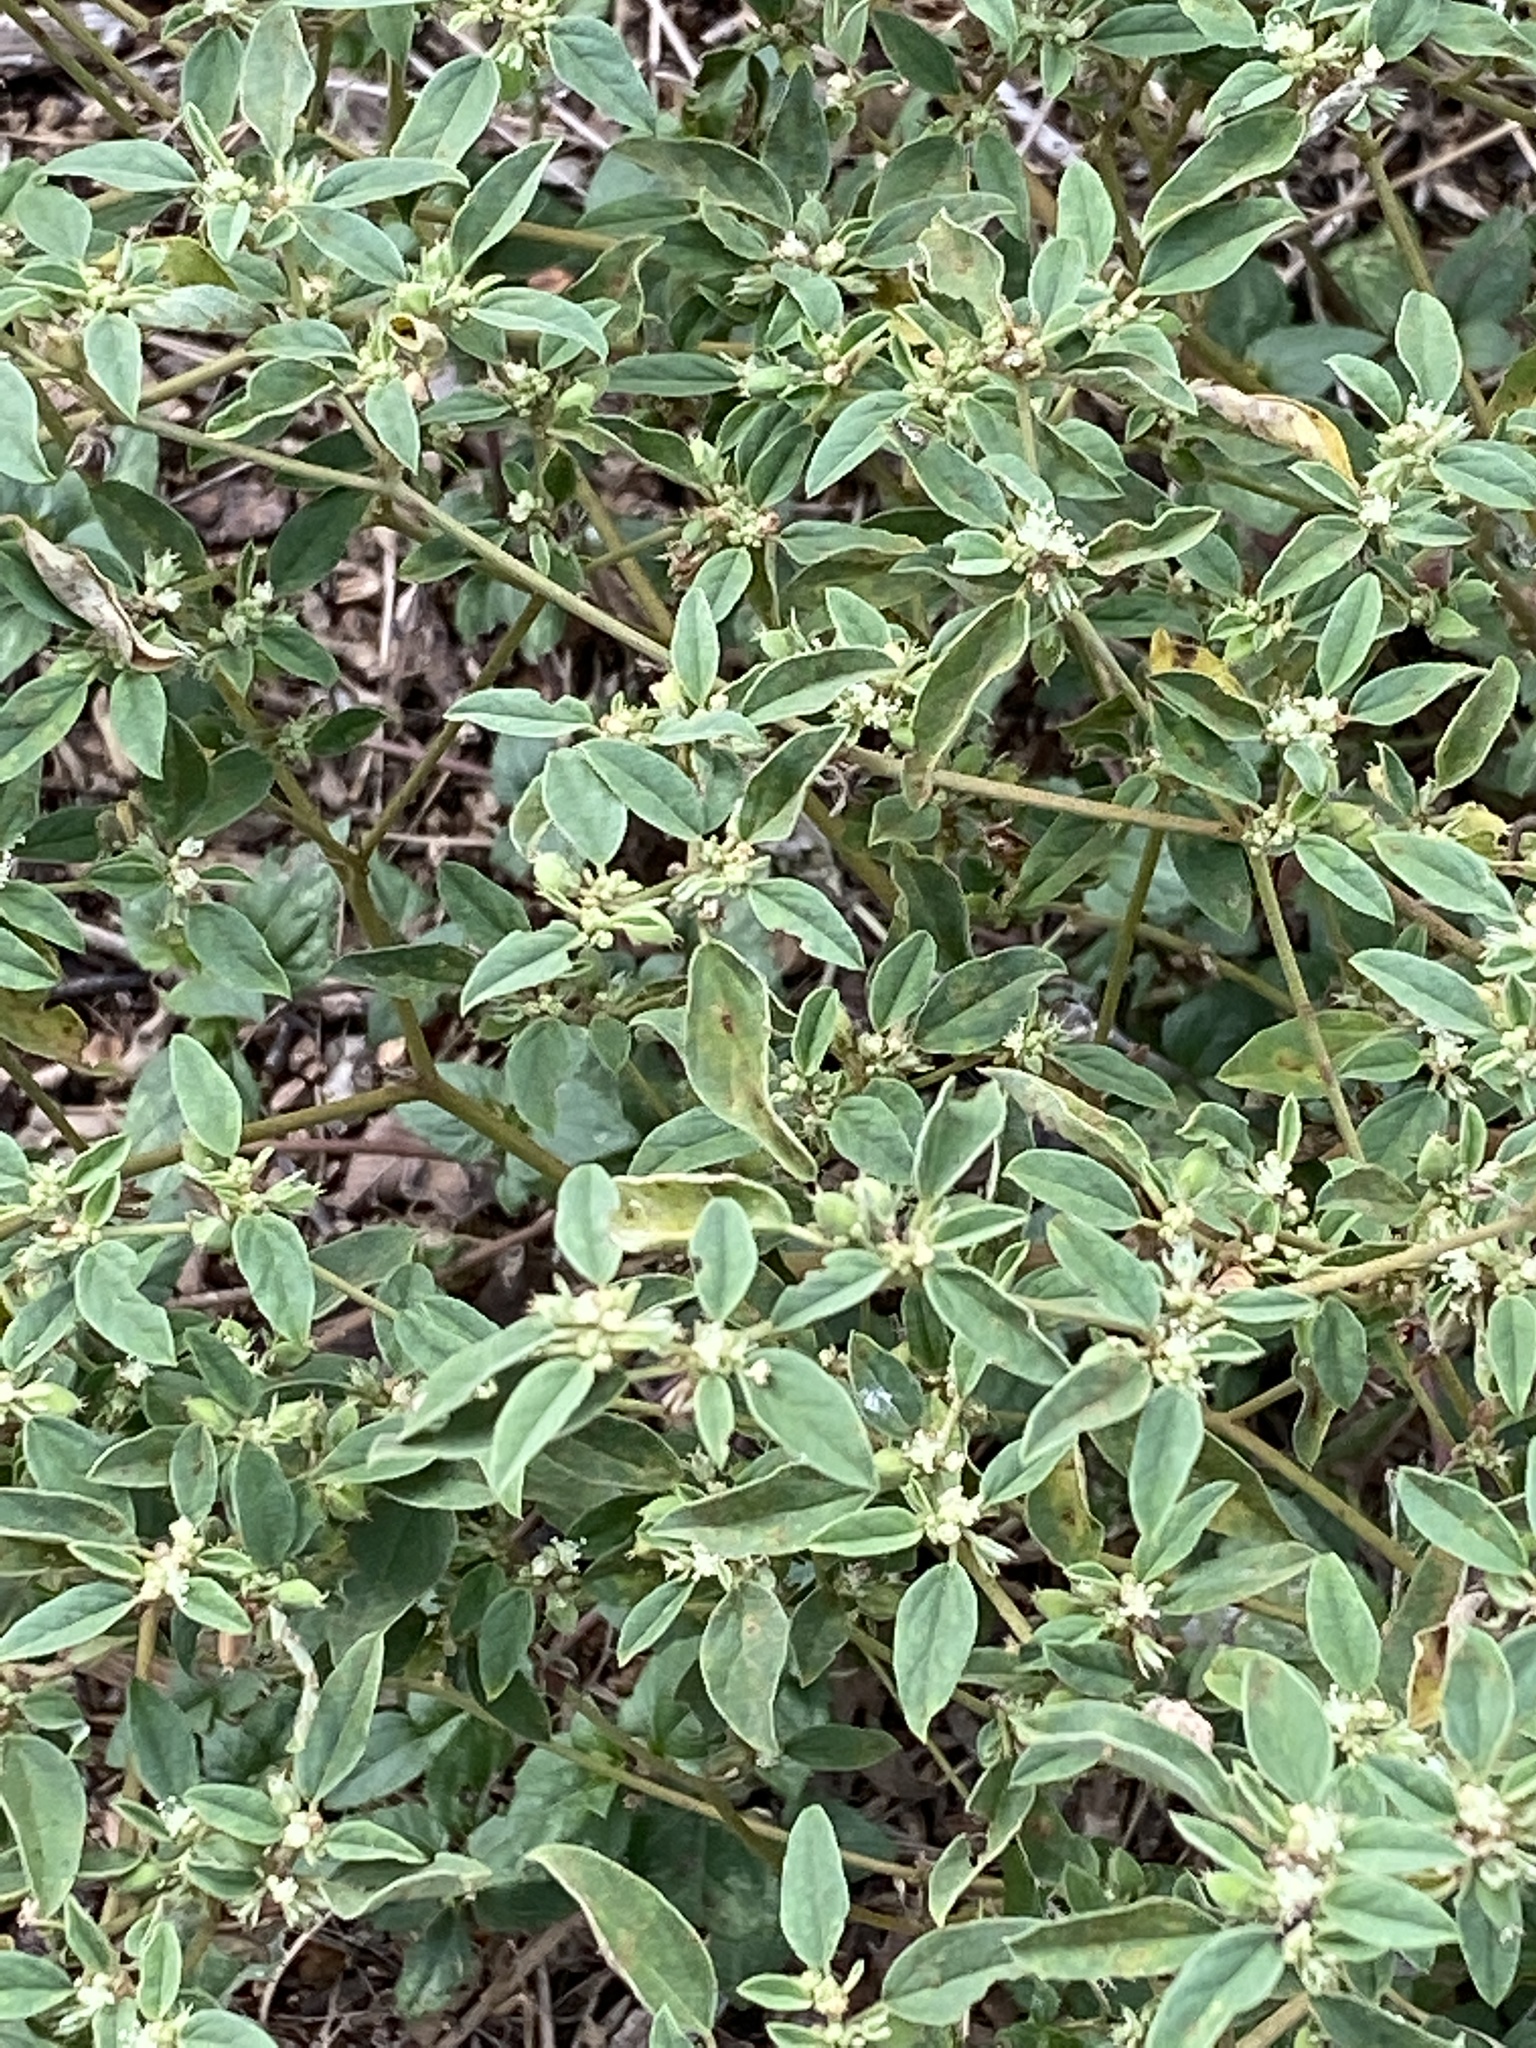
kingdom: Plantae
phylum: Tracheophyta
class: Magnoliopsida
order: Malpighiales
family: Euphorbiaceae
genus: Croton
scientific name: Croton monanthogynus
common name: One-seed croton
